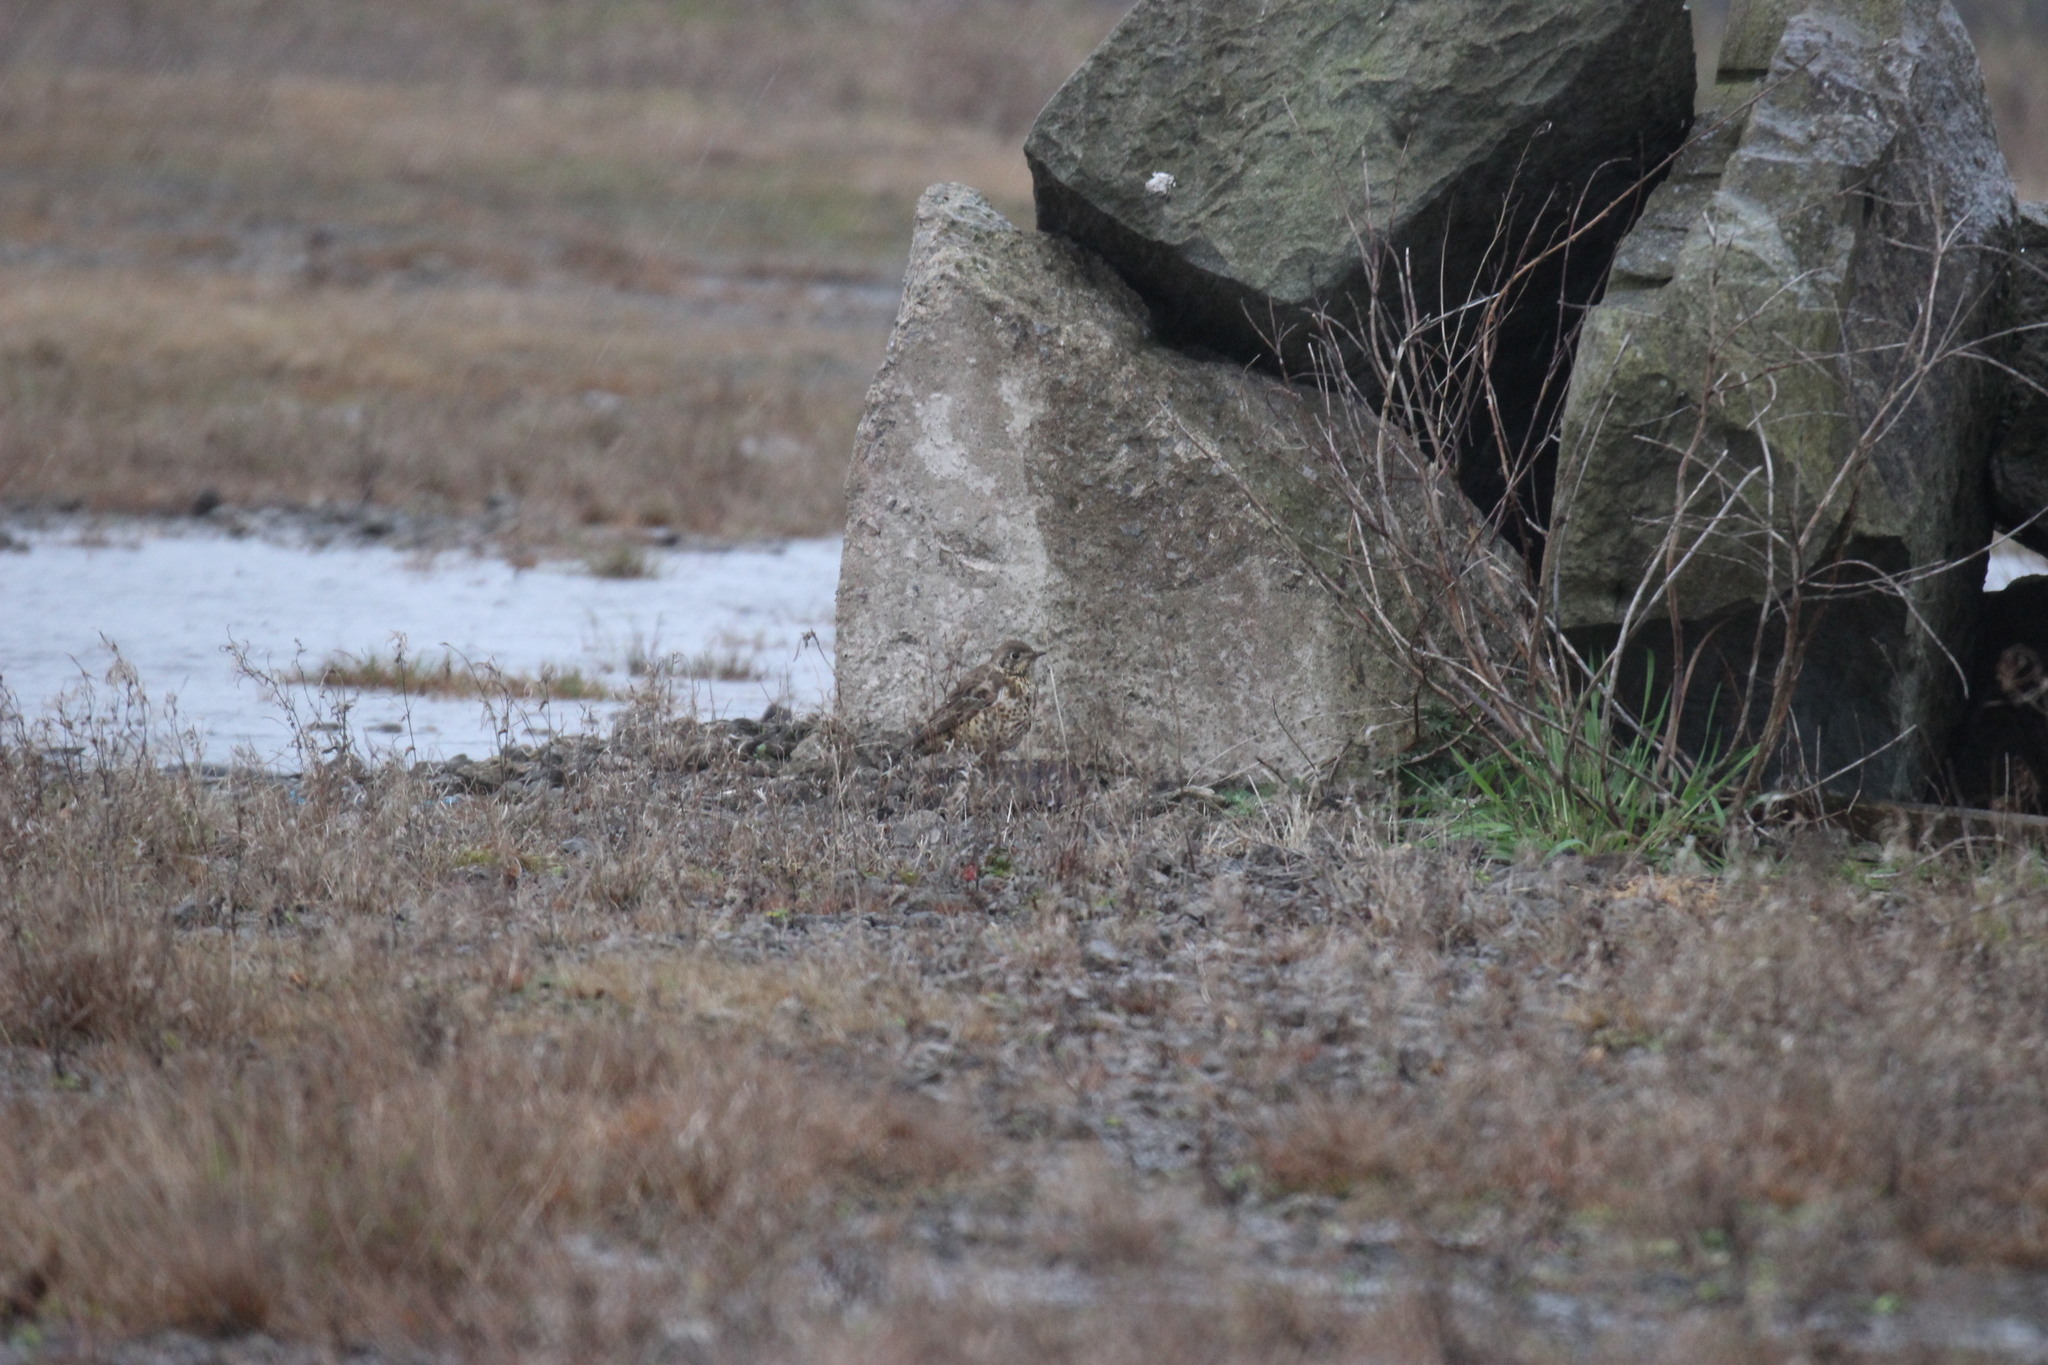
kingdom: Animalia
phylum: Chordata
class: Aves
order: Passeriformes
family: Turdidae
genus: Turdus
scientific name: Turdus viscivorus
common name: Mistle thrush
